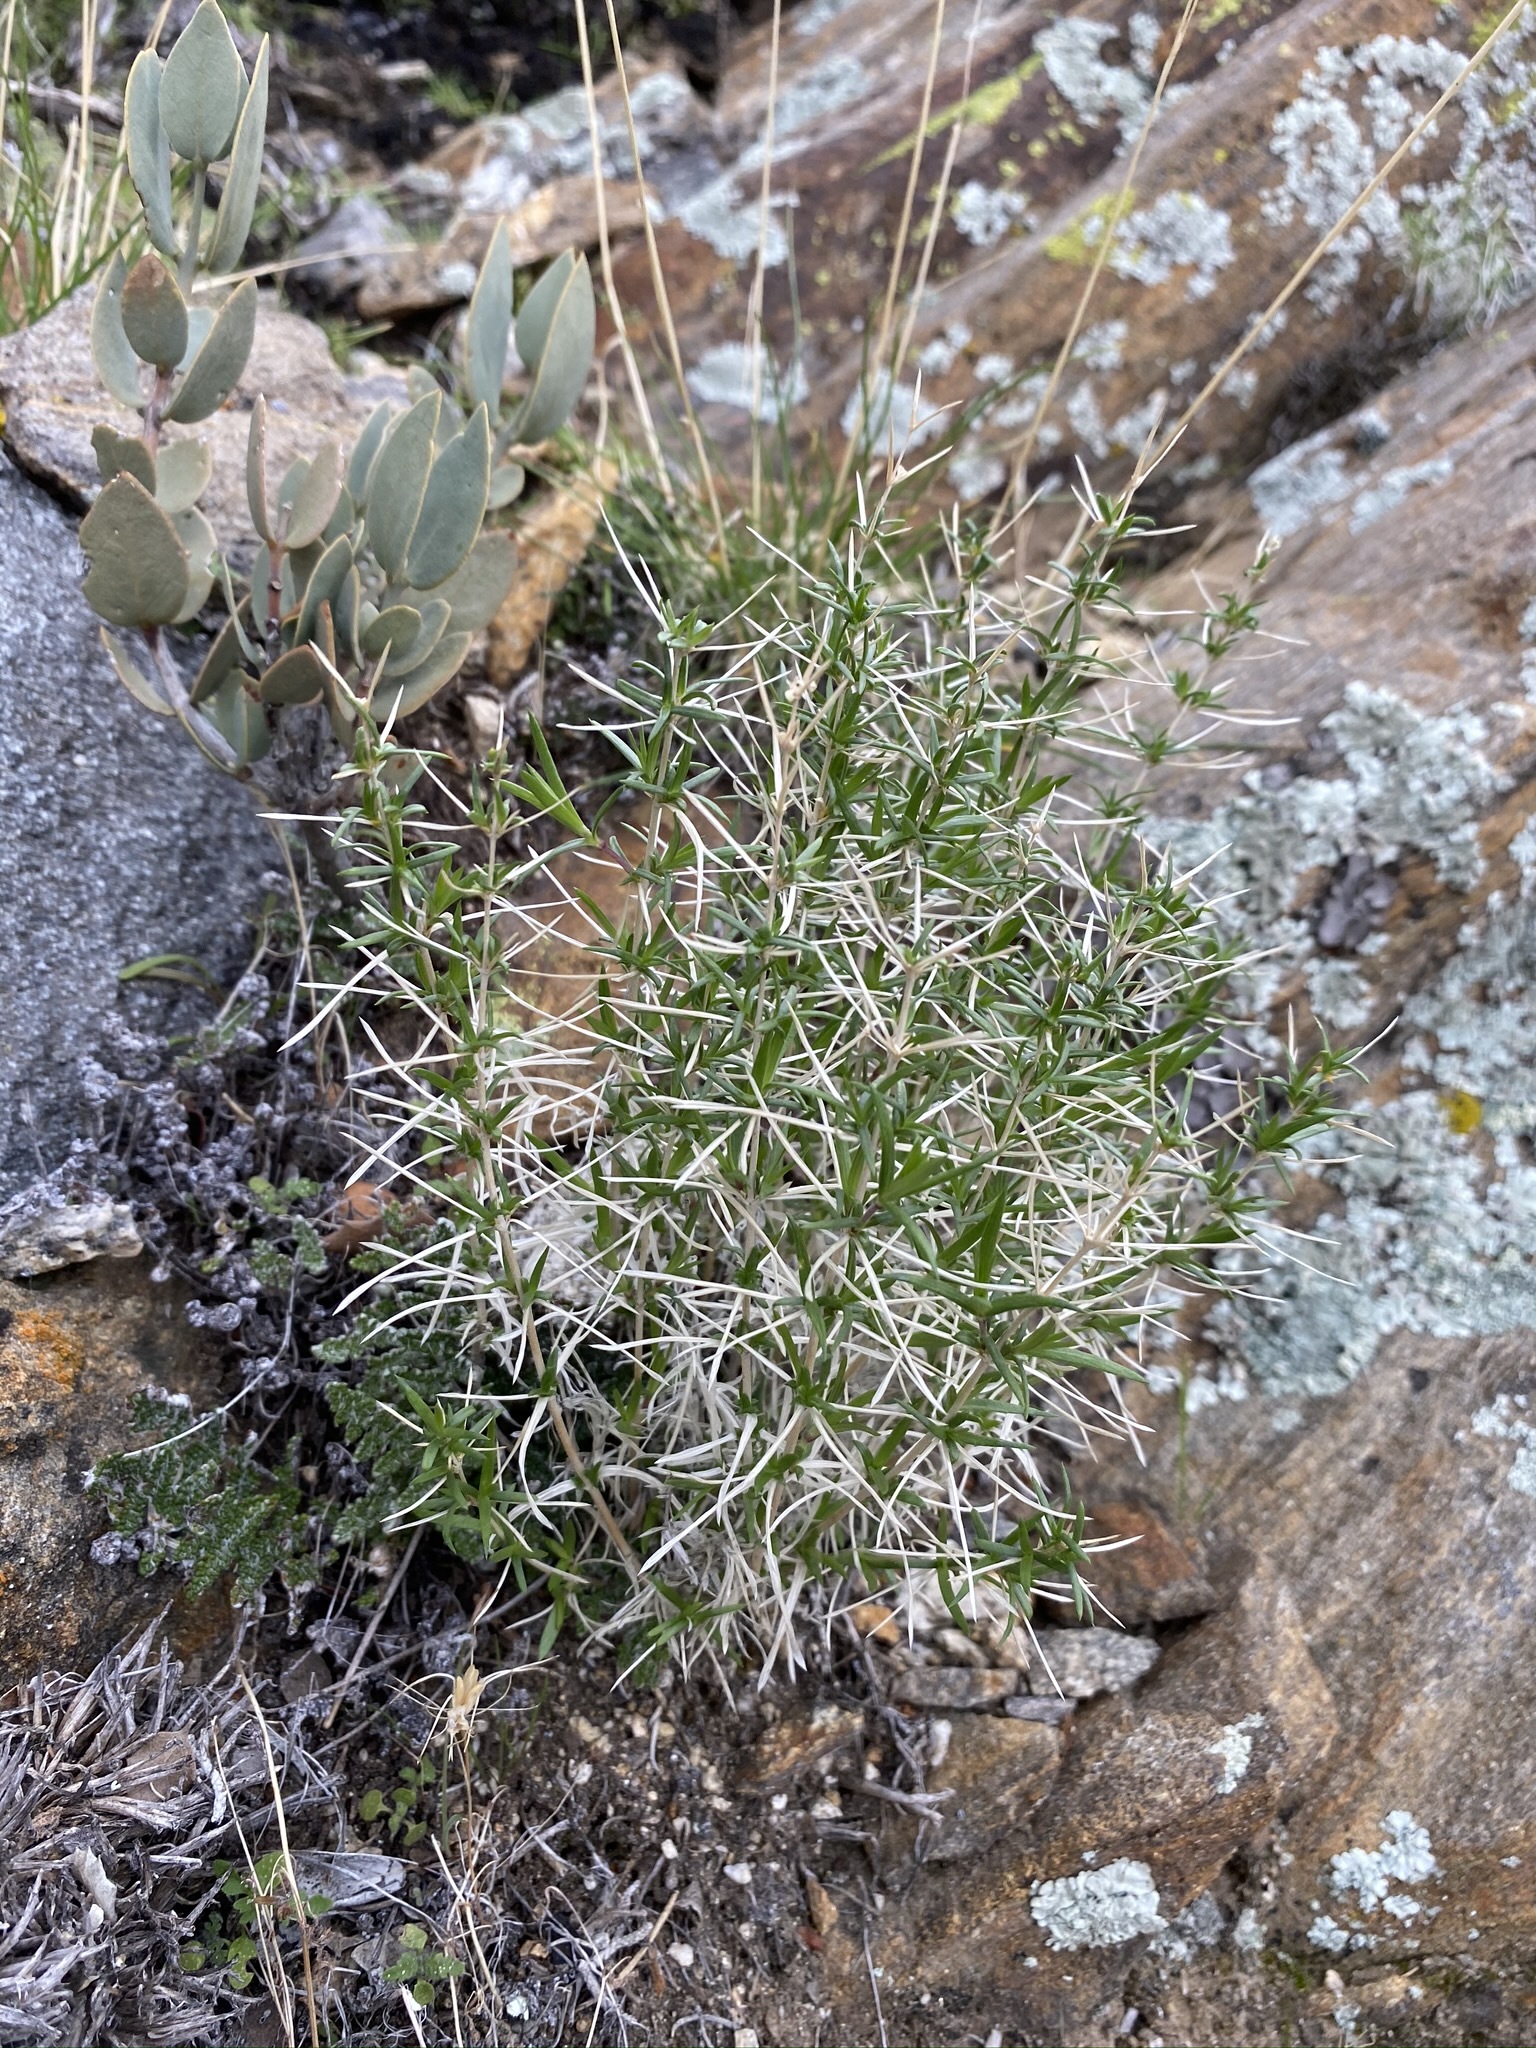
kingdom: Plantae
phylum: Tracheophyta
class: Magnoliopsida
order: Ericales
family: Polemoniaceae
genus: Leptosiphon
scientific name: Leptosiphon floribundum
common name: Many-flower linanthus
